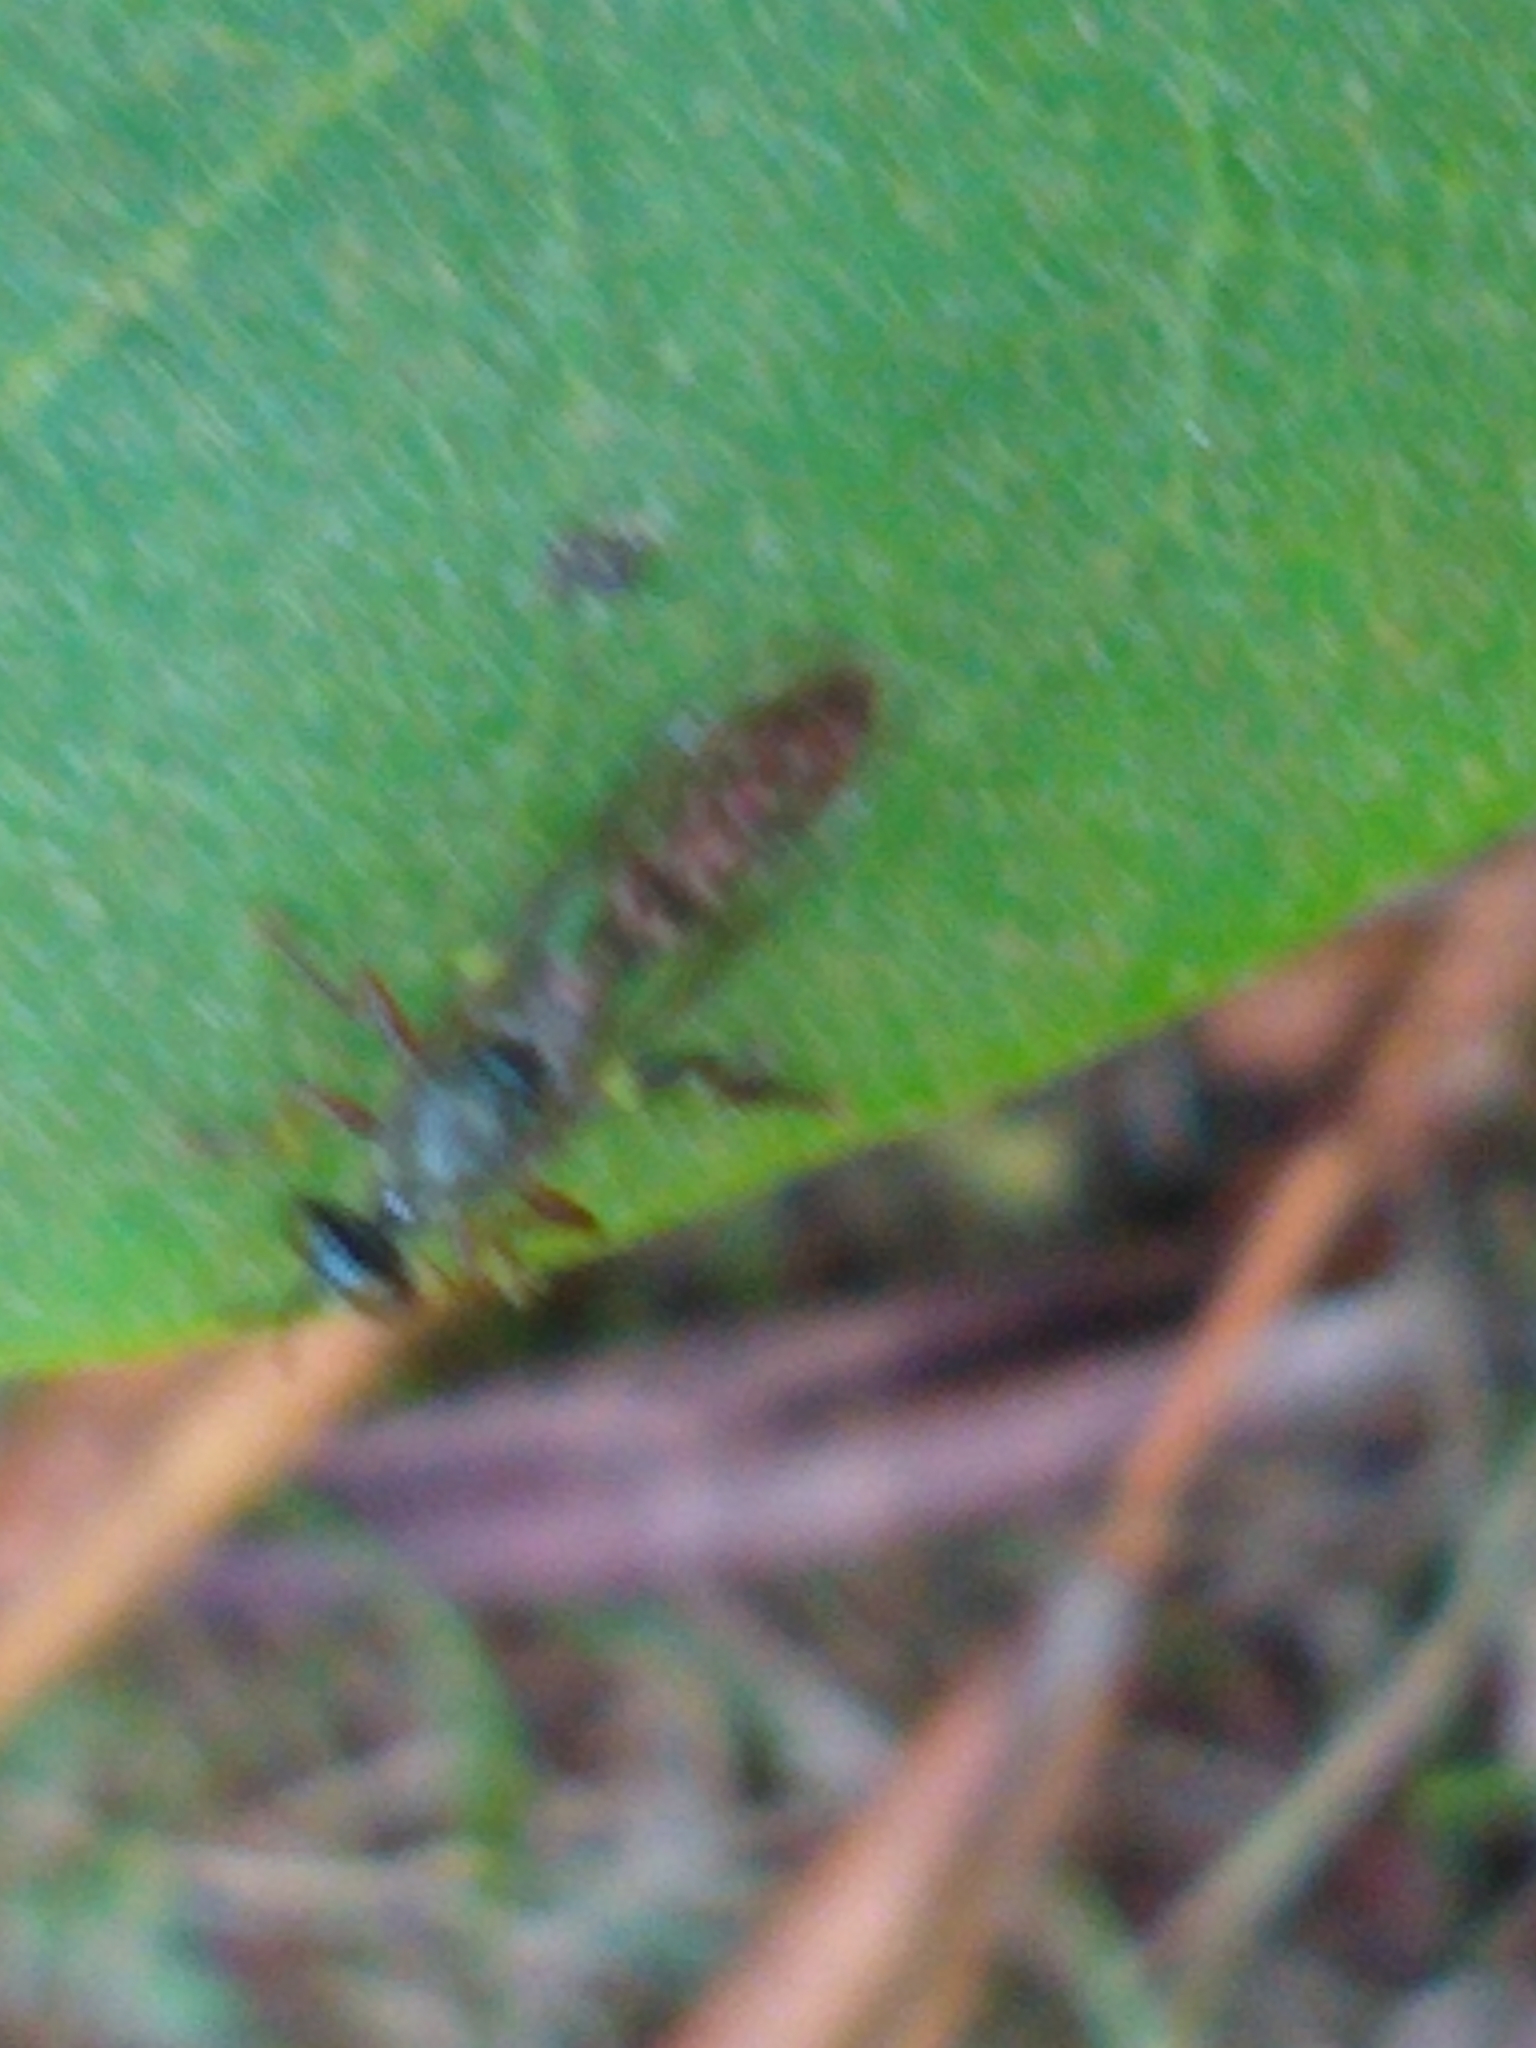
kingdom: Animalia
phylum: Arthropoda
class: Insecta
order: Diptera
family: Asilidae
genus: Dioctria
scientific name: Dioctria hyalipennis
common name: Stripe-legged robberfly
